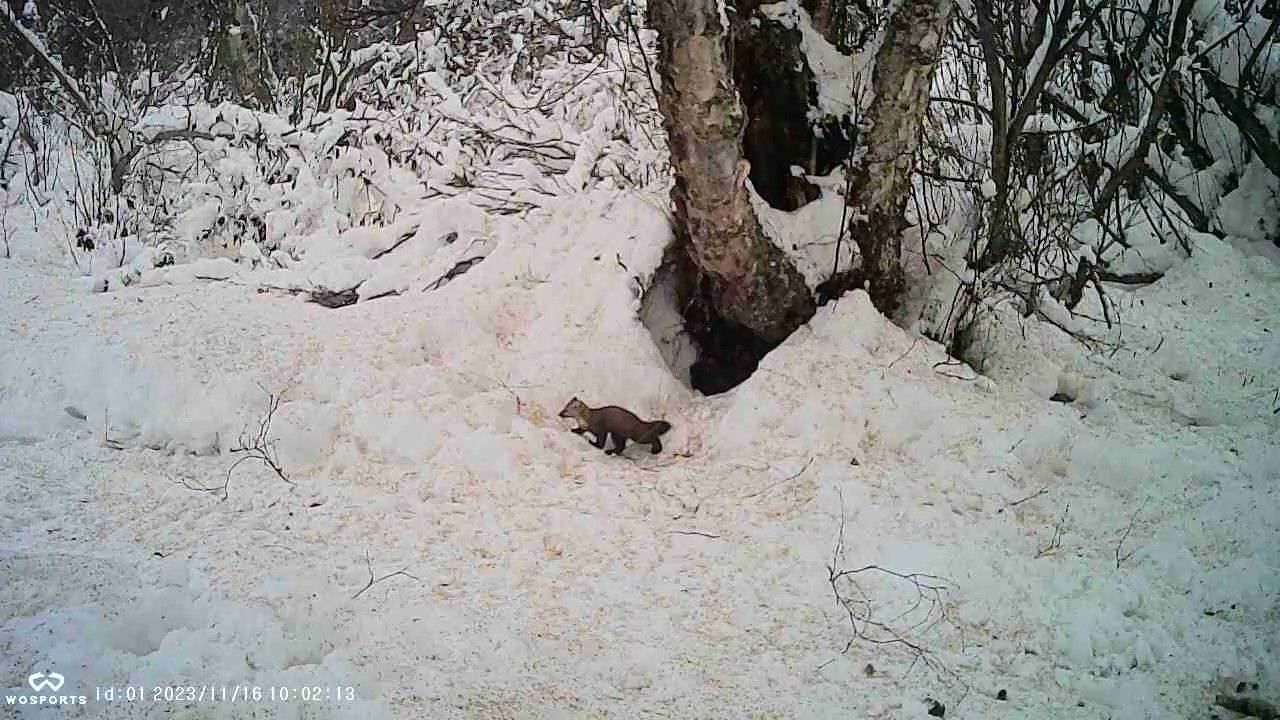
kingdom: Animalia
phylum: Chordata
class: Mammalia
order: Carnivora
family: Mustelidae
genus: Martes
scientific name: Martes americana
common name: American marten
